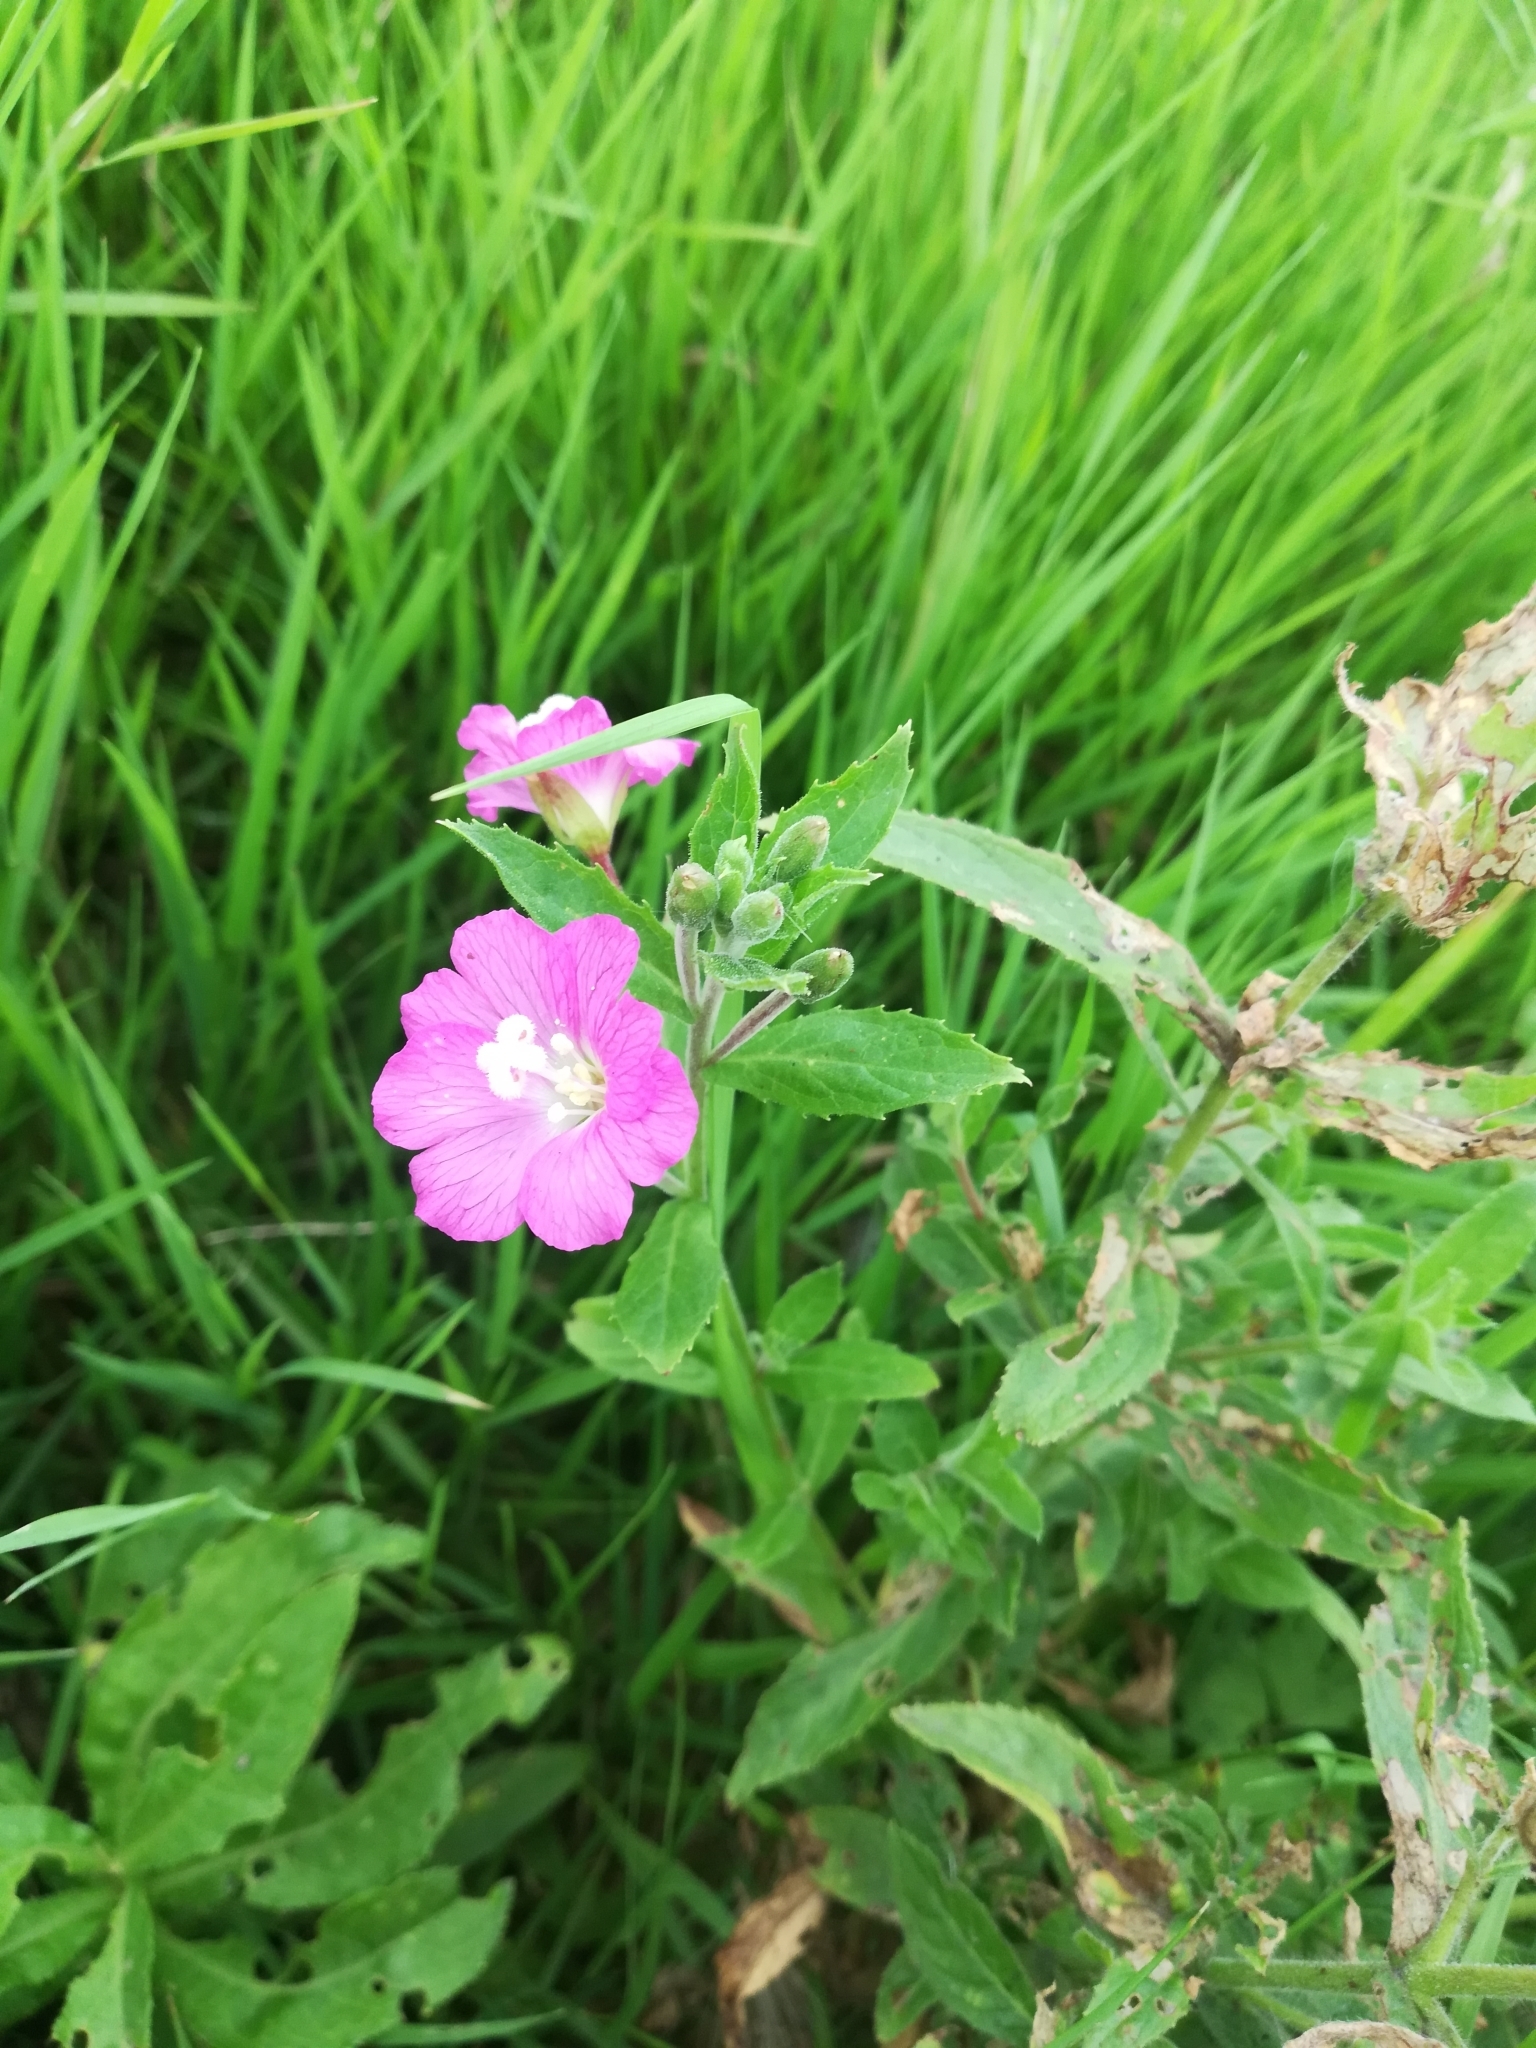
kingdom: Plantae
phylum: Tracheophyta
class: Magnoliopsida
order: Myrtales
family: Onagraceae
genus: Epilobium
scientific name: Epilobium hirsutum
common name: Great willowherb
